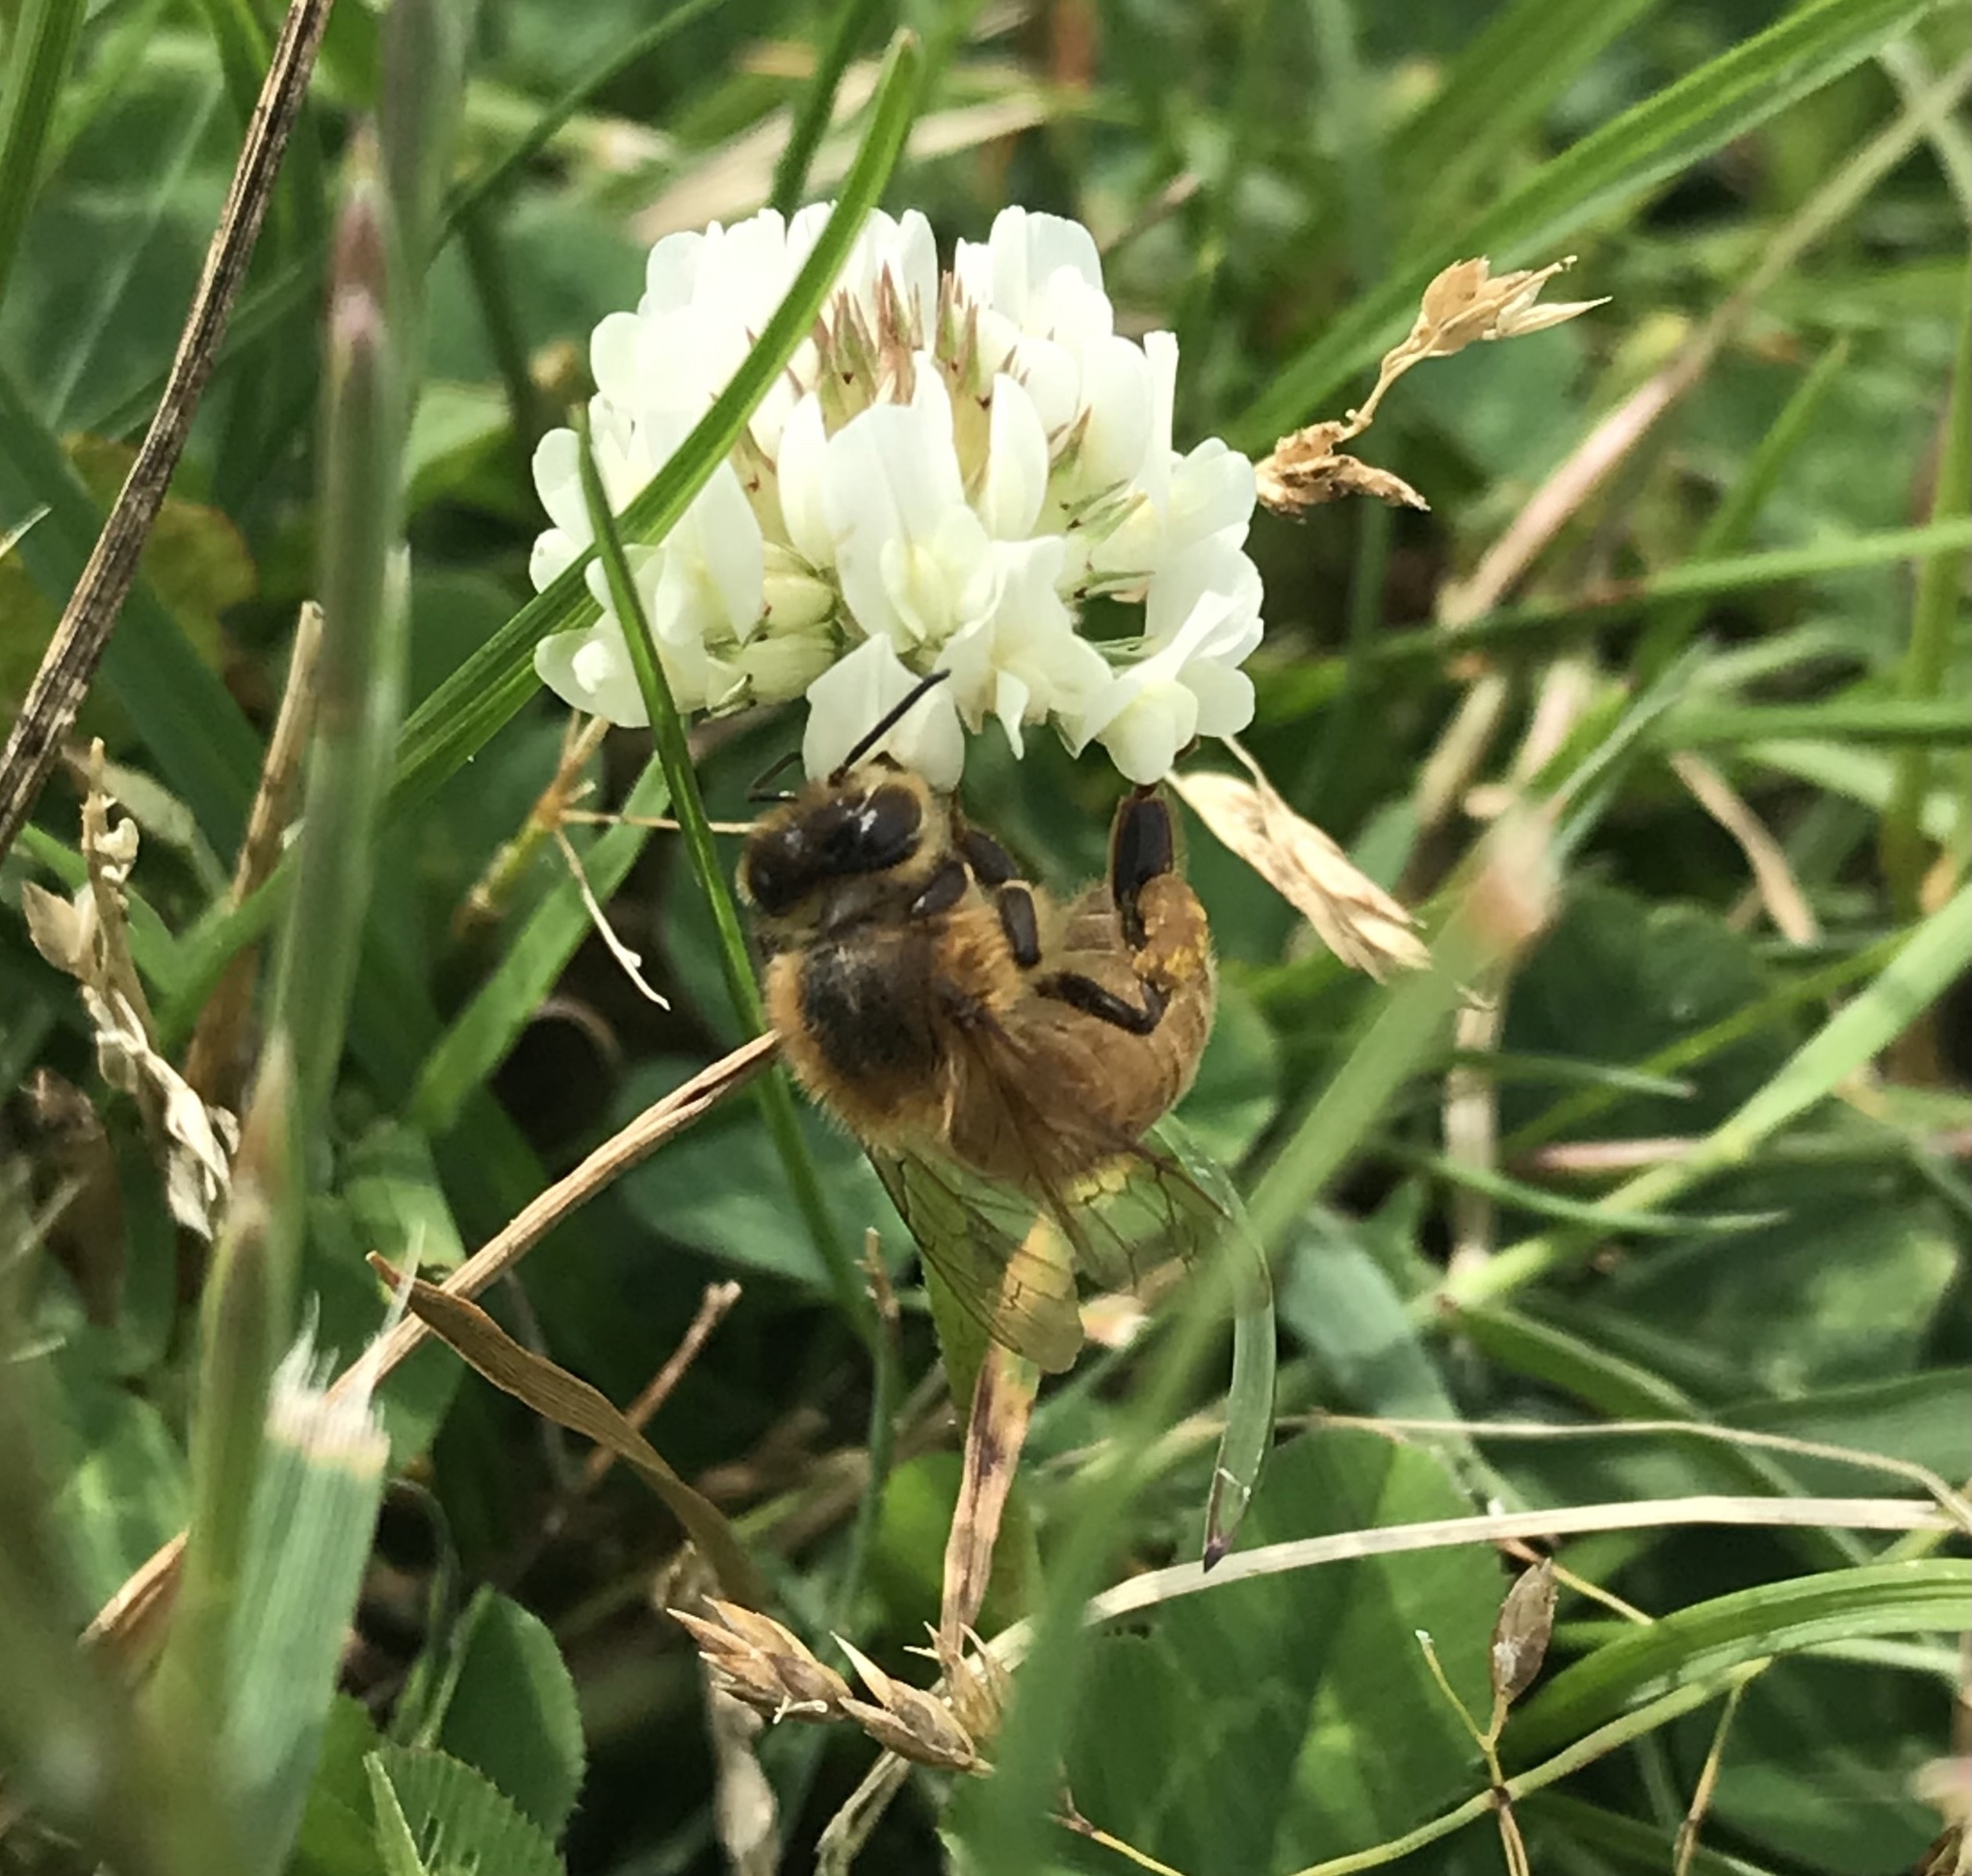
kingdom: Animalia
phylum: Arthropoda
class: Insecta
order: Hymenoptera
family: Apidae
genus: Apis
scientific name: Apis mellifera
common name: Honey bee
